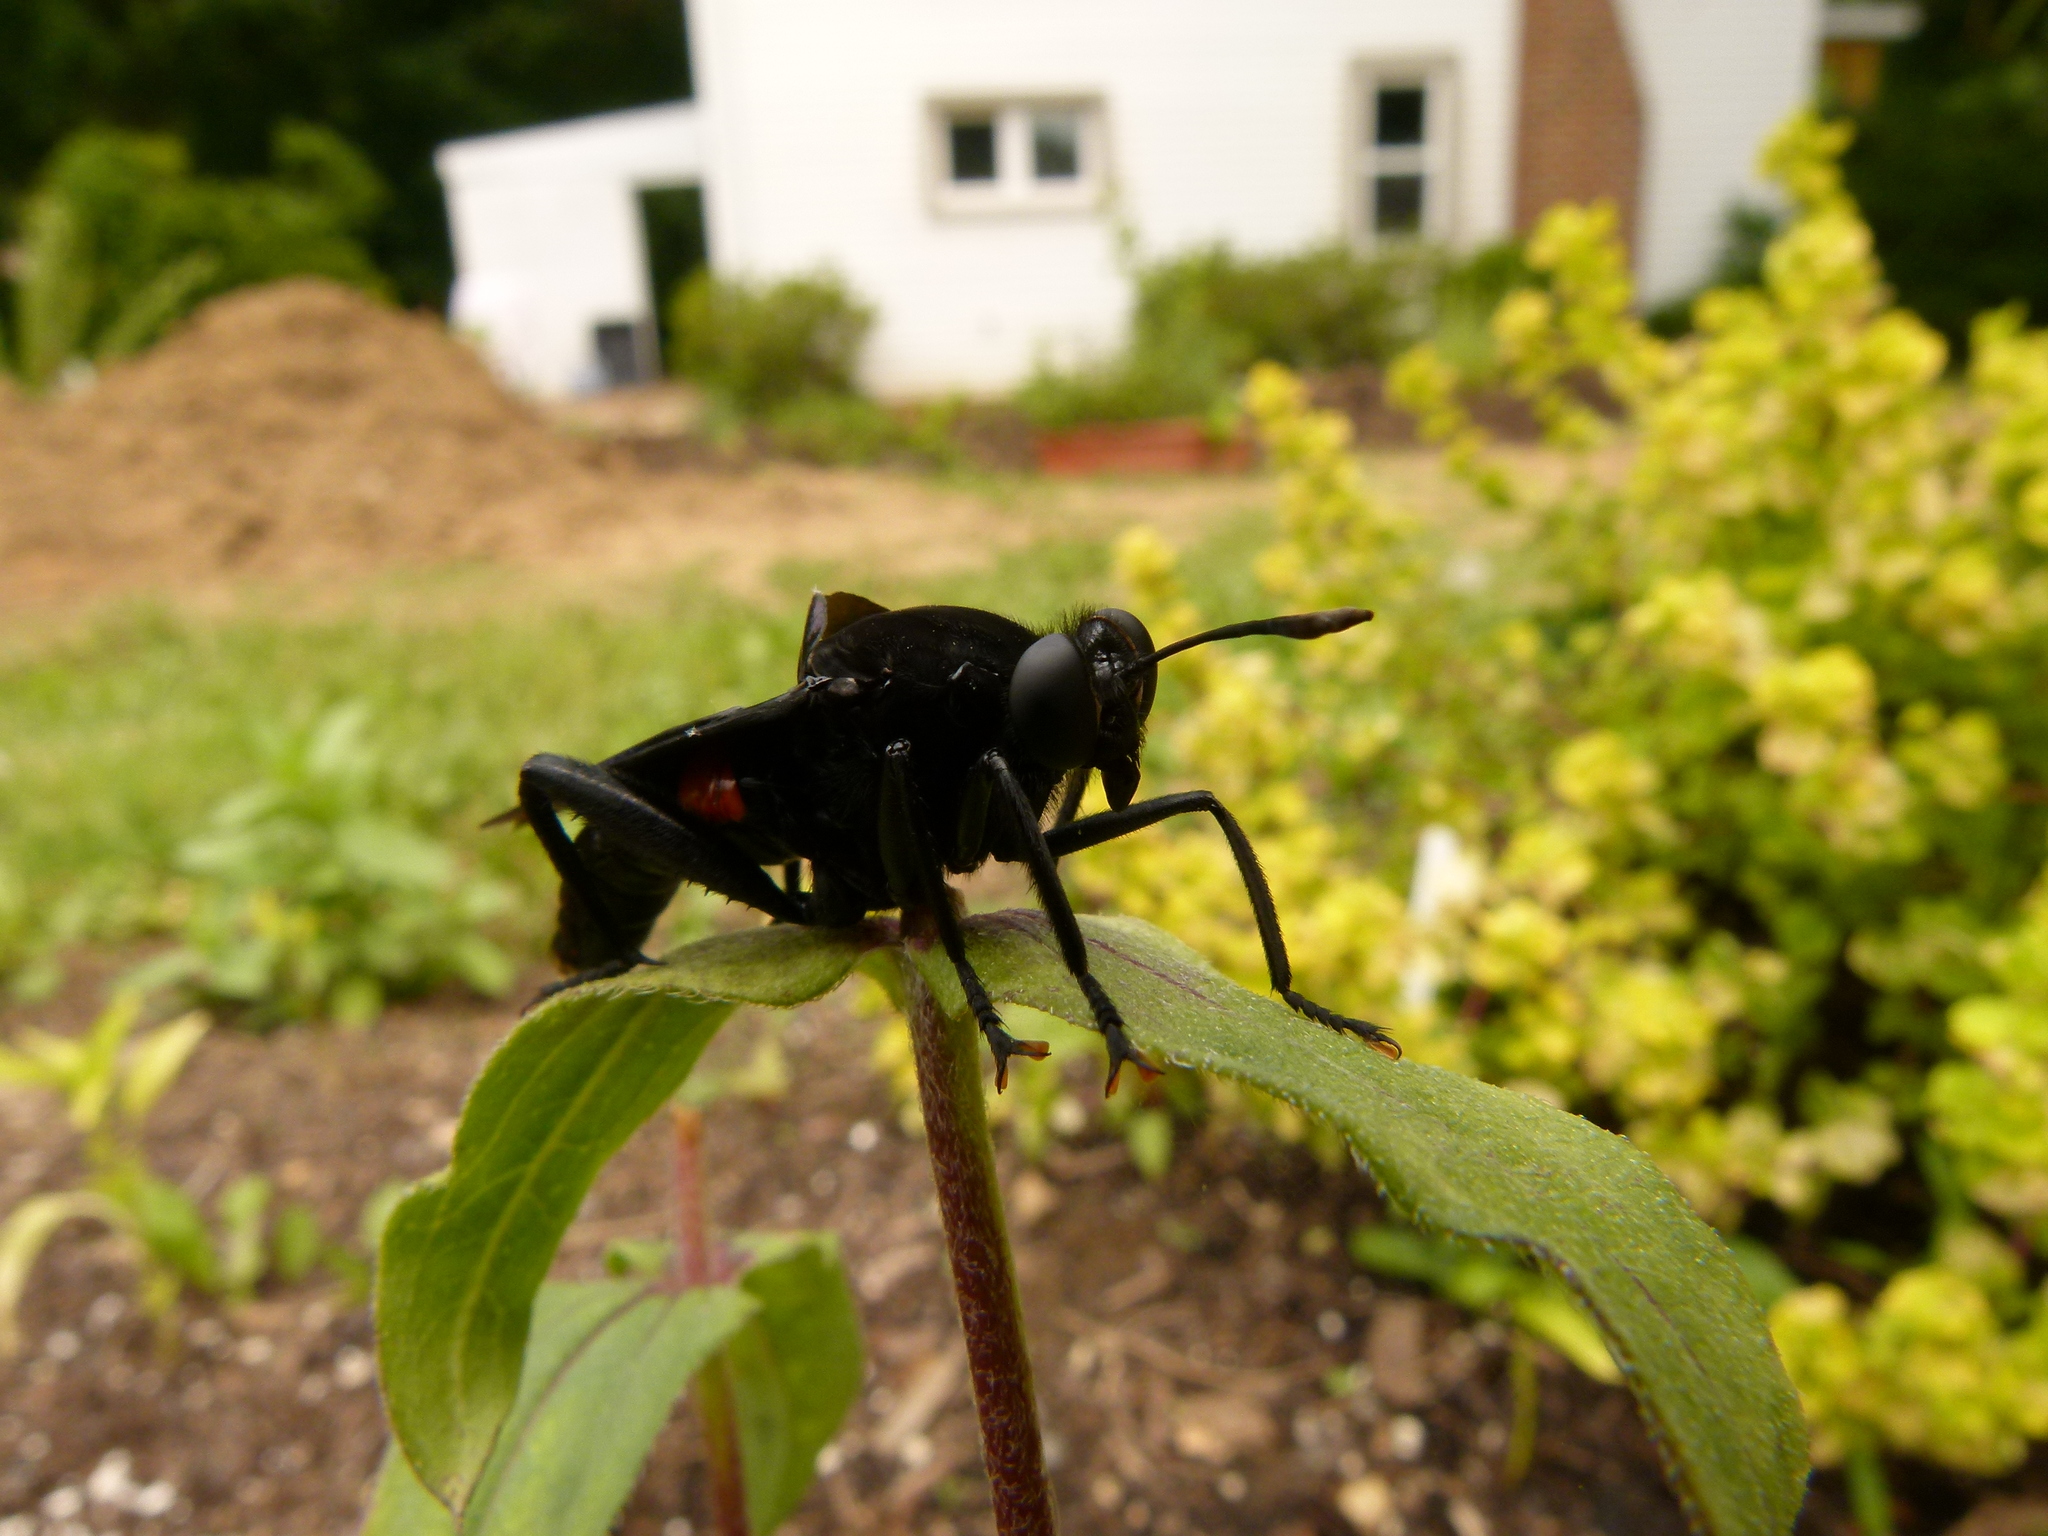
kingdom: Animalia
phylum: Arthropoda
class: Insecta
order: Diptera
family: Mydidae
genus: Mydas
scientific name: Mydas clavatus
